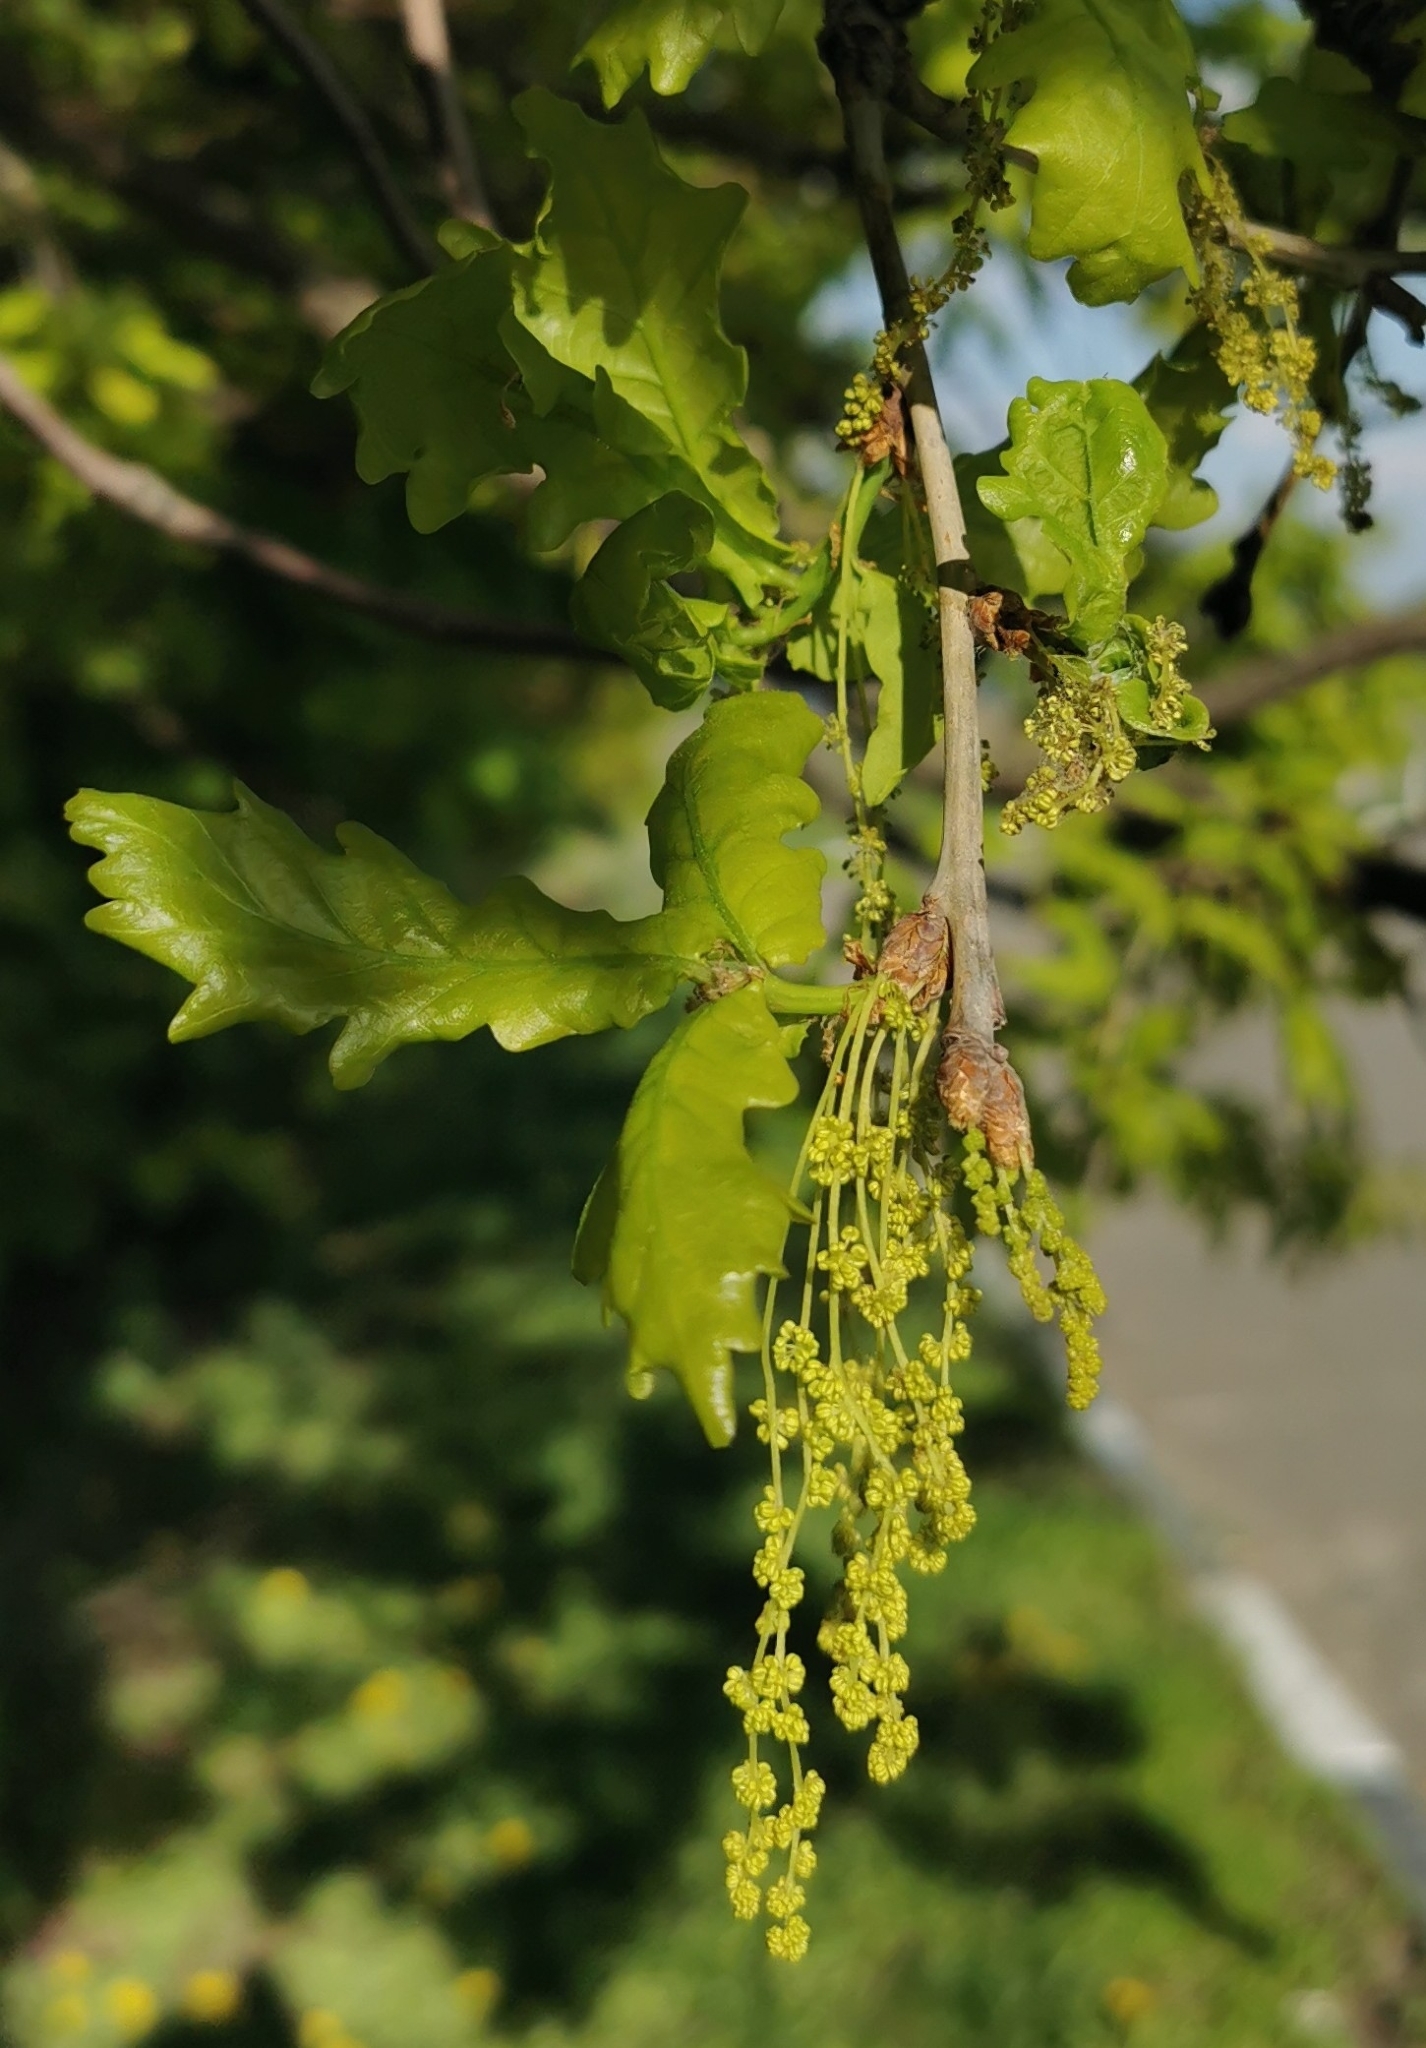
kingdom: Plantae
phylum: Tracheophyta
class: Magnoliopsida
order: Fagales
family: Fagaceae
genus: Quercus
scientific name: Quercus robur
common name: Pedunculate oak
